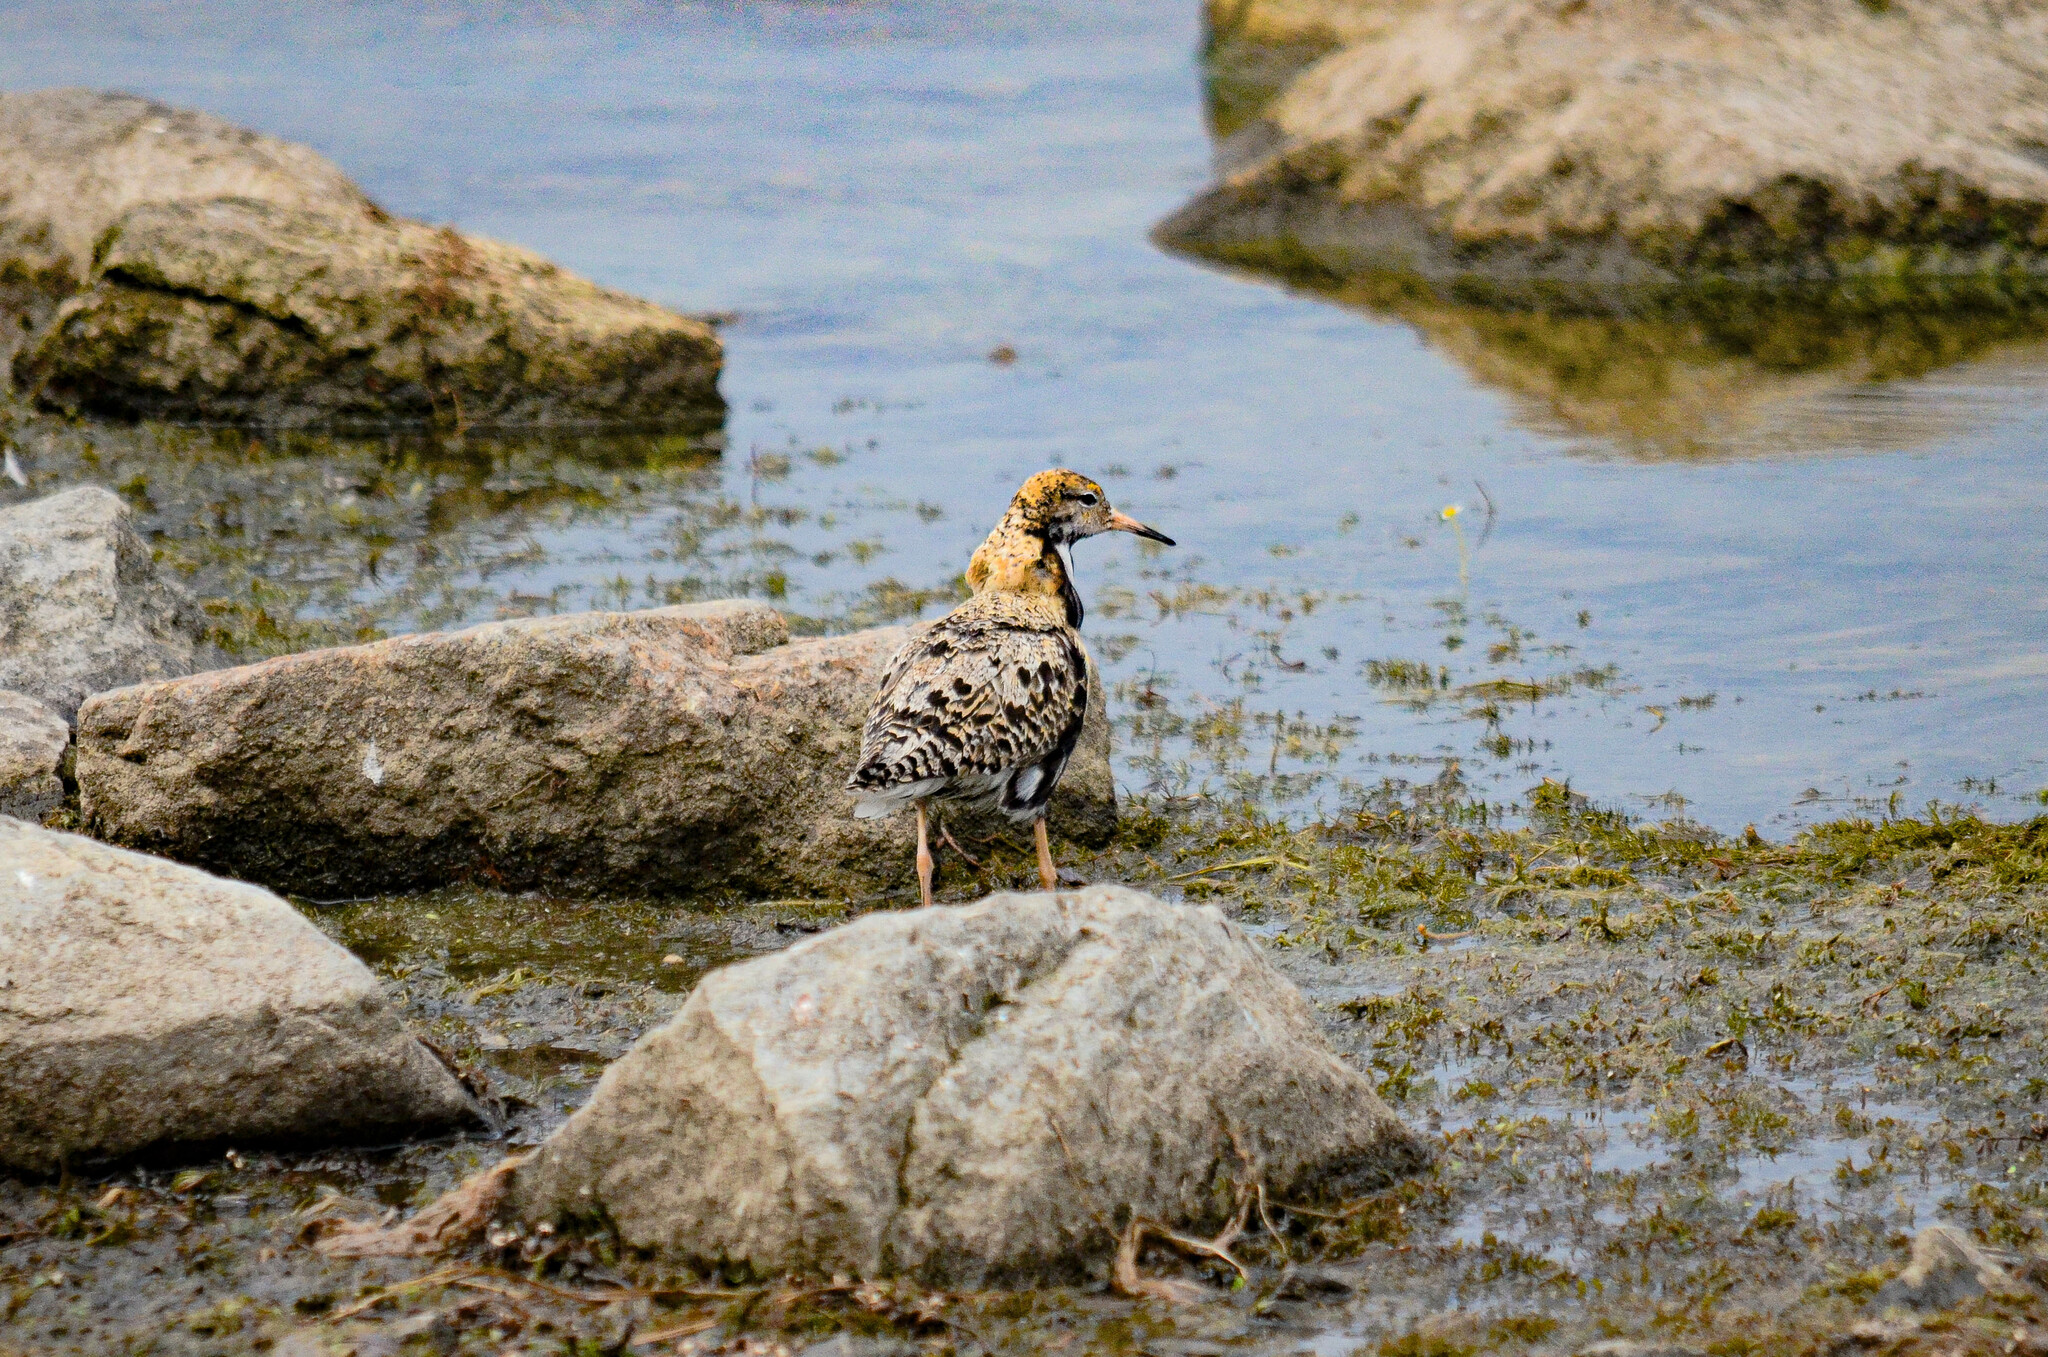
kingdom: Animalia
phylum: Chordata
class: Aves
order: Charadriiformes
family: Scolopacidae
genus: Calidris
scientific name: Calidris pugnax
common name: Ruff
